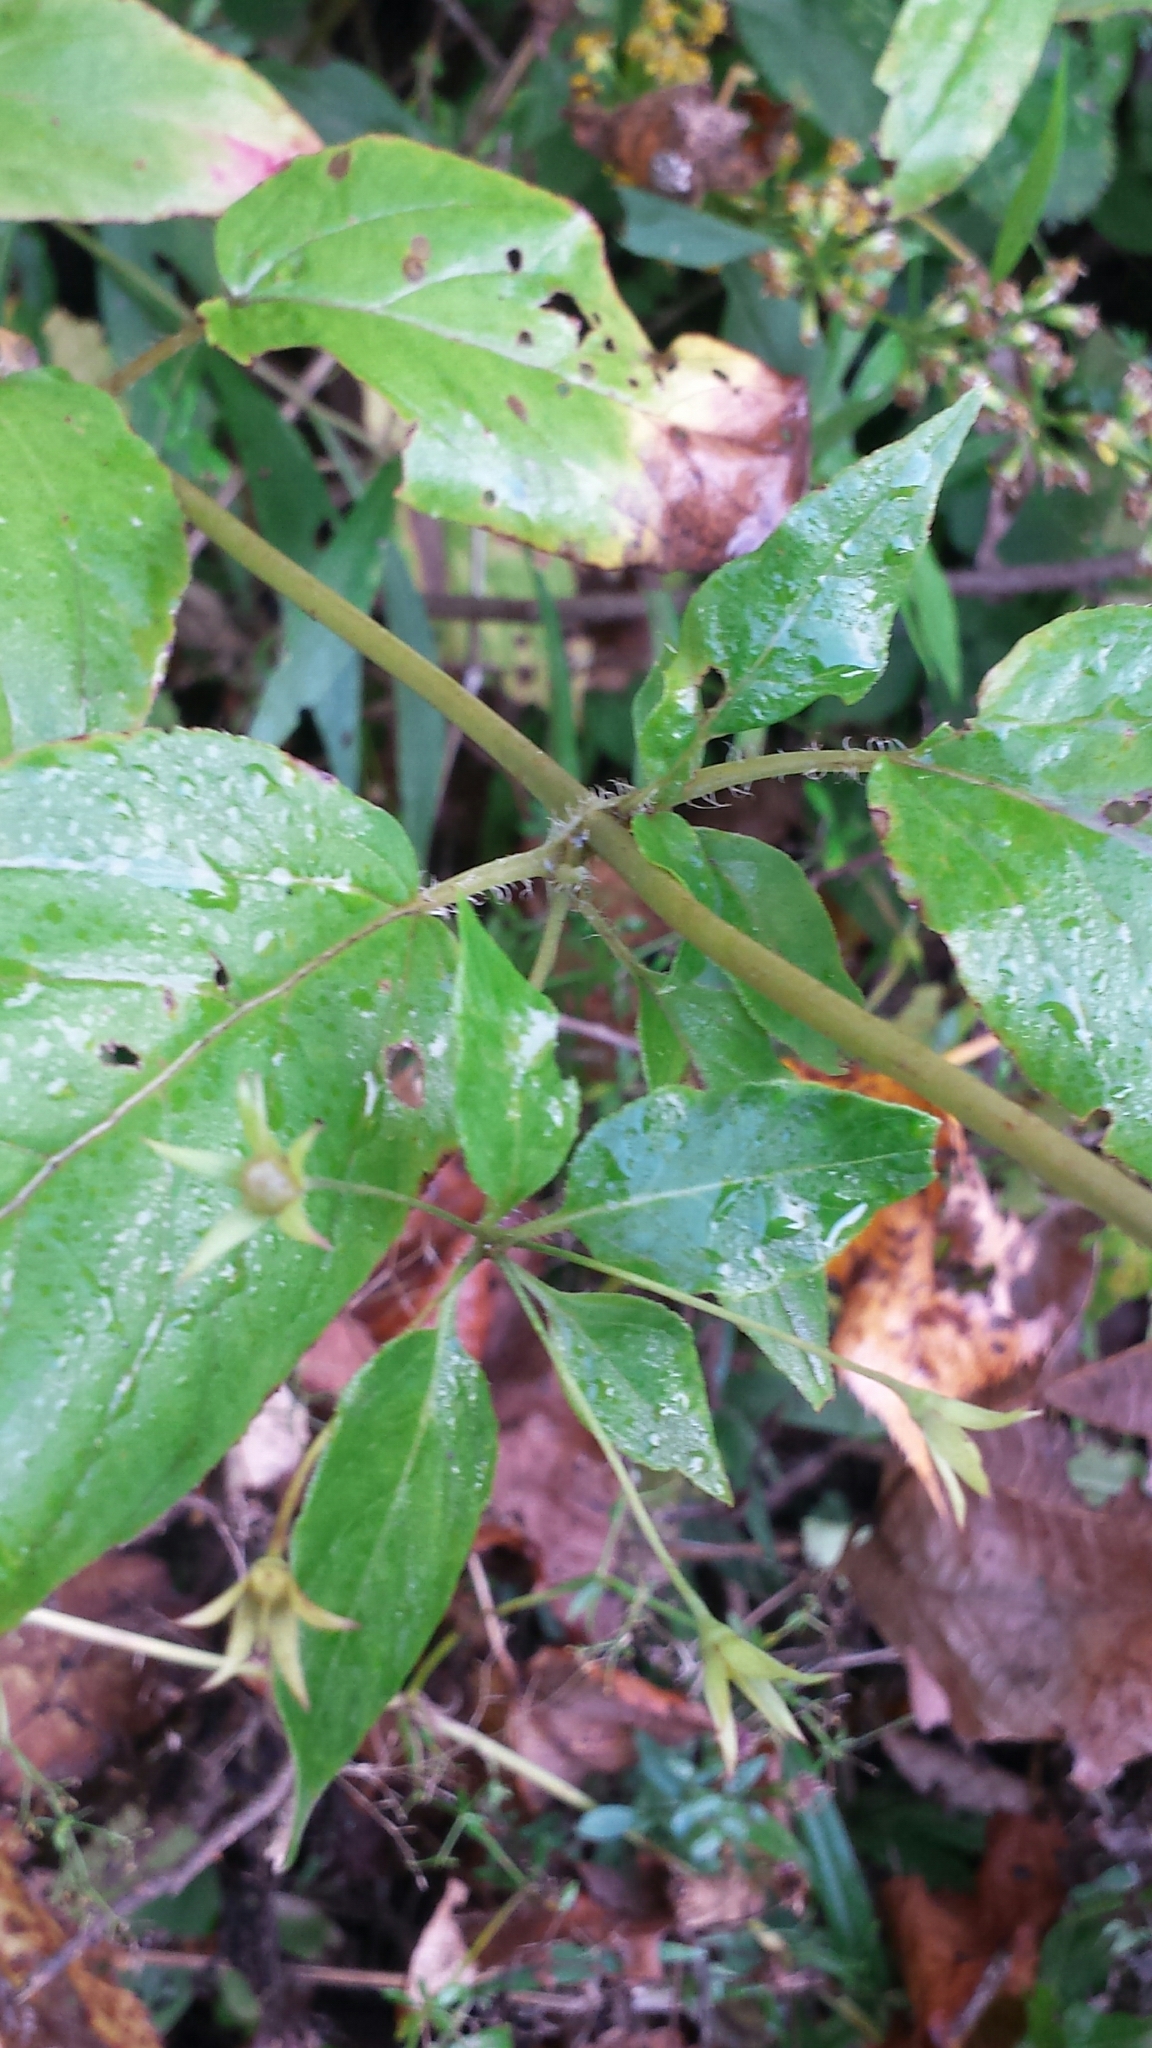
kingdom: Plantae
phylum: Tracheophyta
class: Magnoliopsida
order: Ericales
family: Primulaceae
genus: Lysimachia
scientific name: Lysimachia ciliata
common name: Fringed loosestrife
